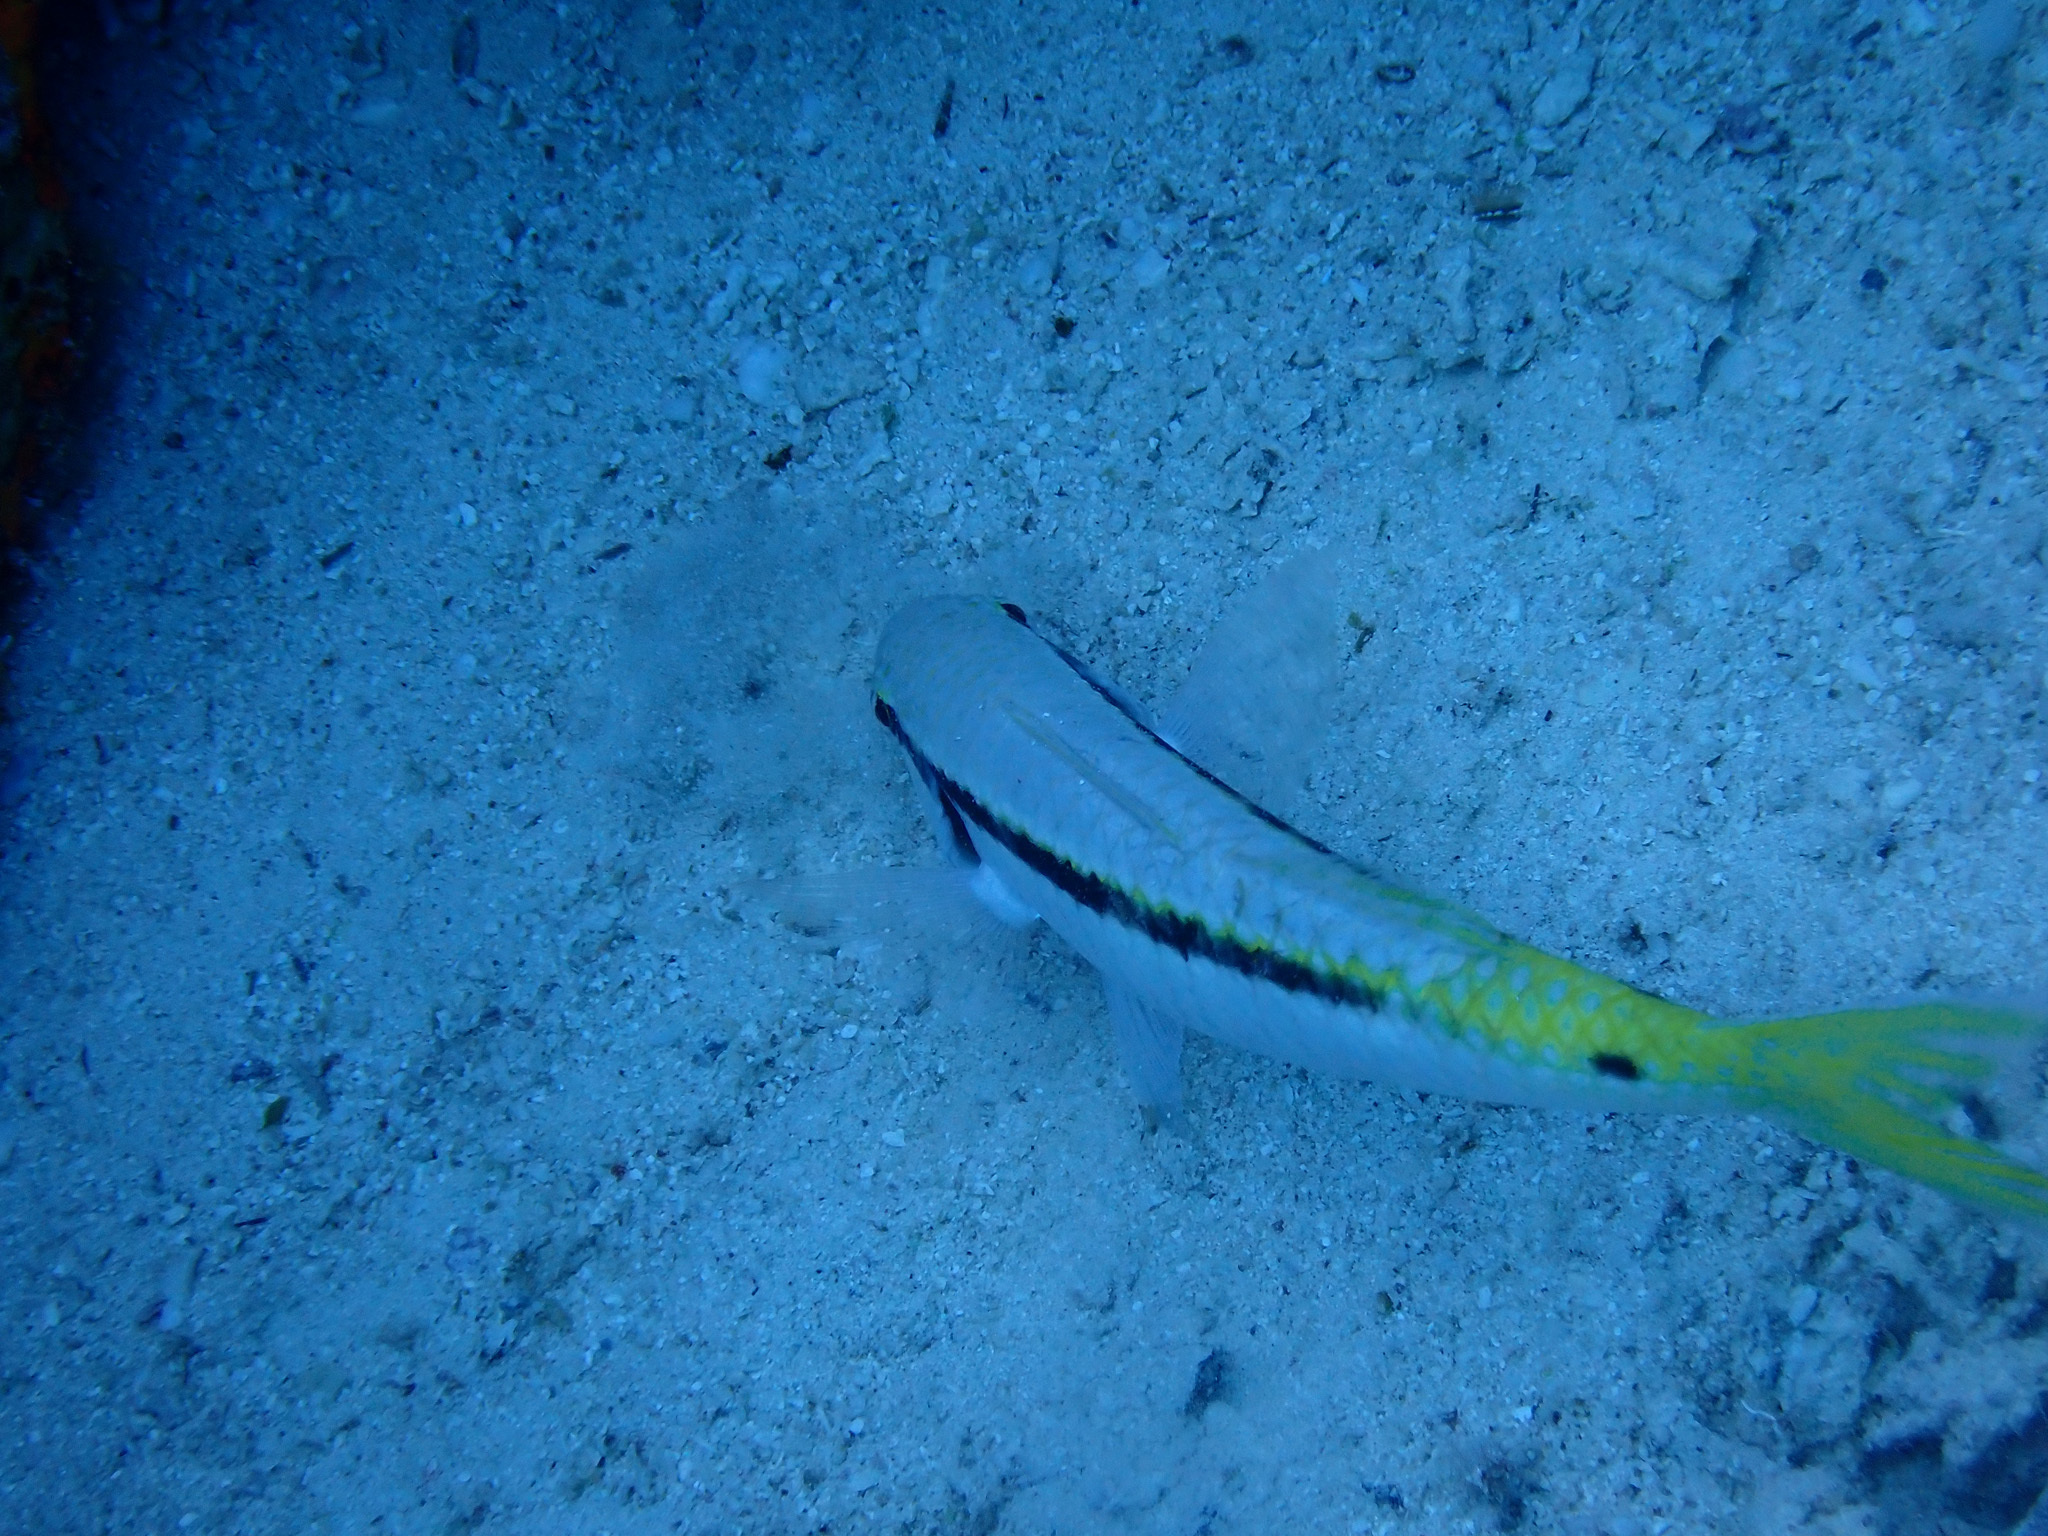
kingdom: Animalia
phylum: Chordata
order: Perciformes
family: Mullidae
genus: Parupeneus
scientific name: Parupeneus forsskali
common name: Red sea goatfish
